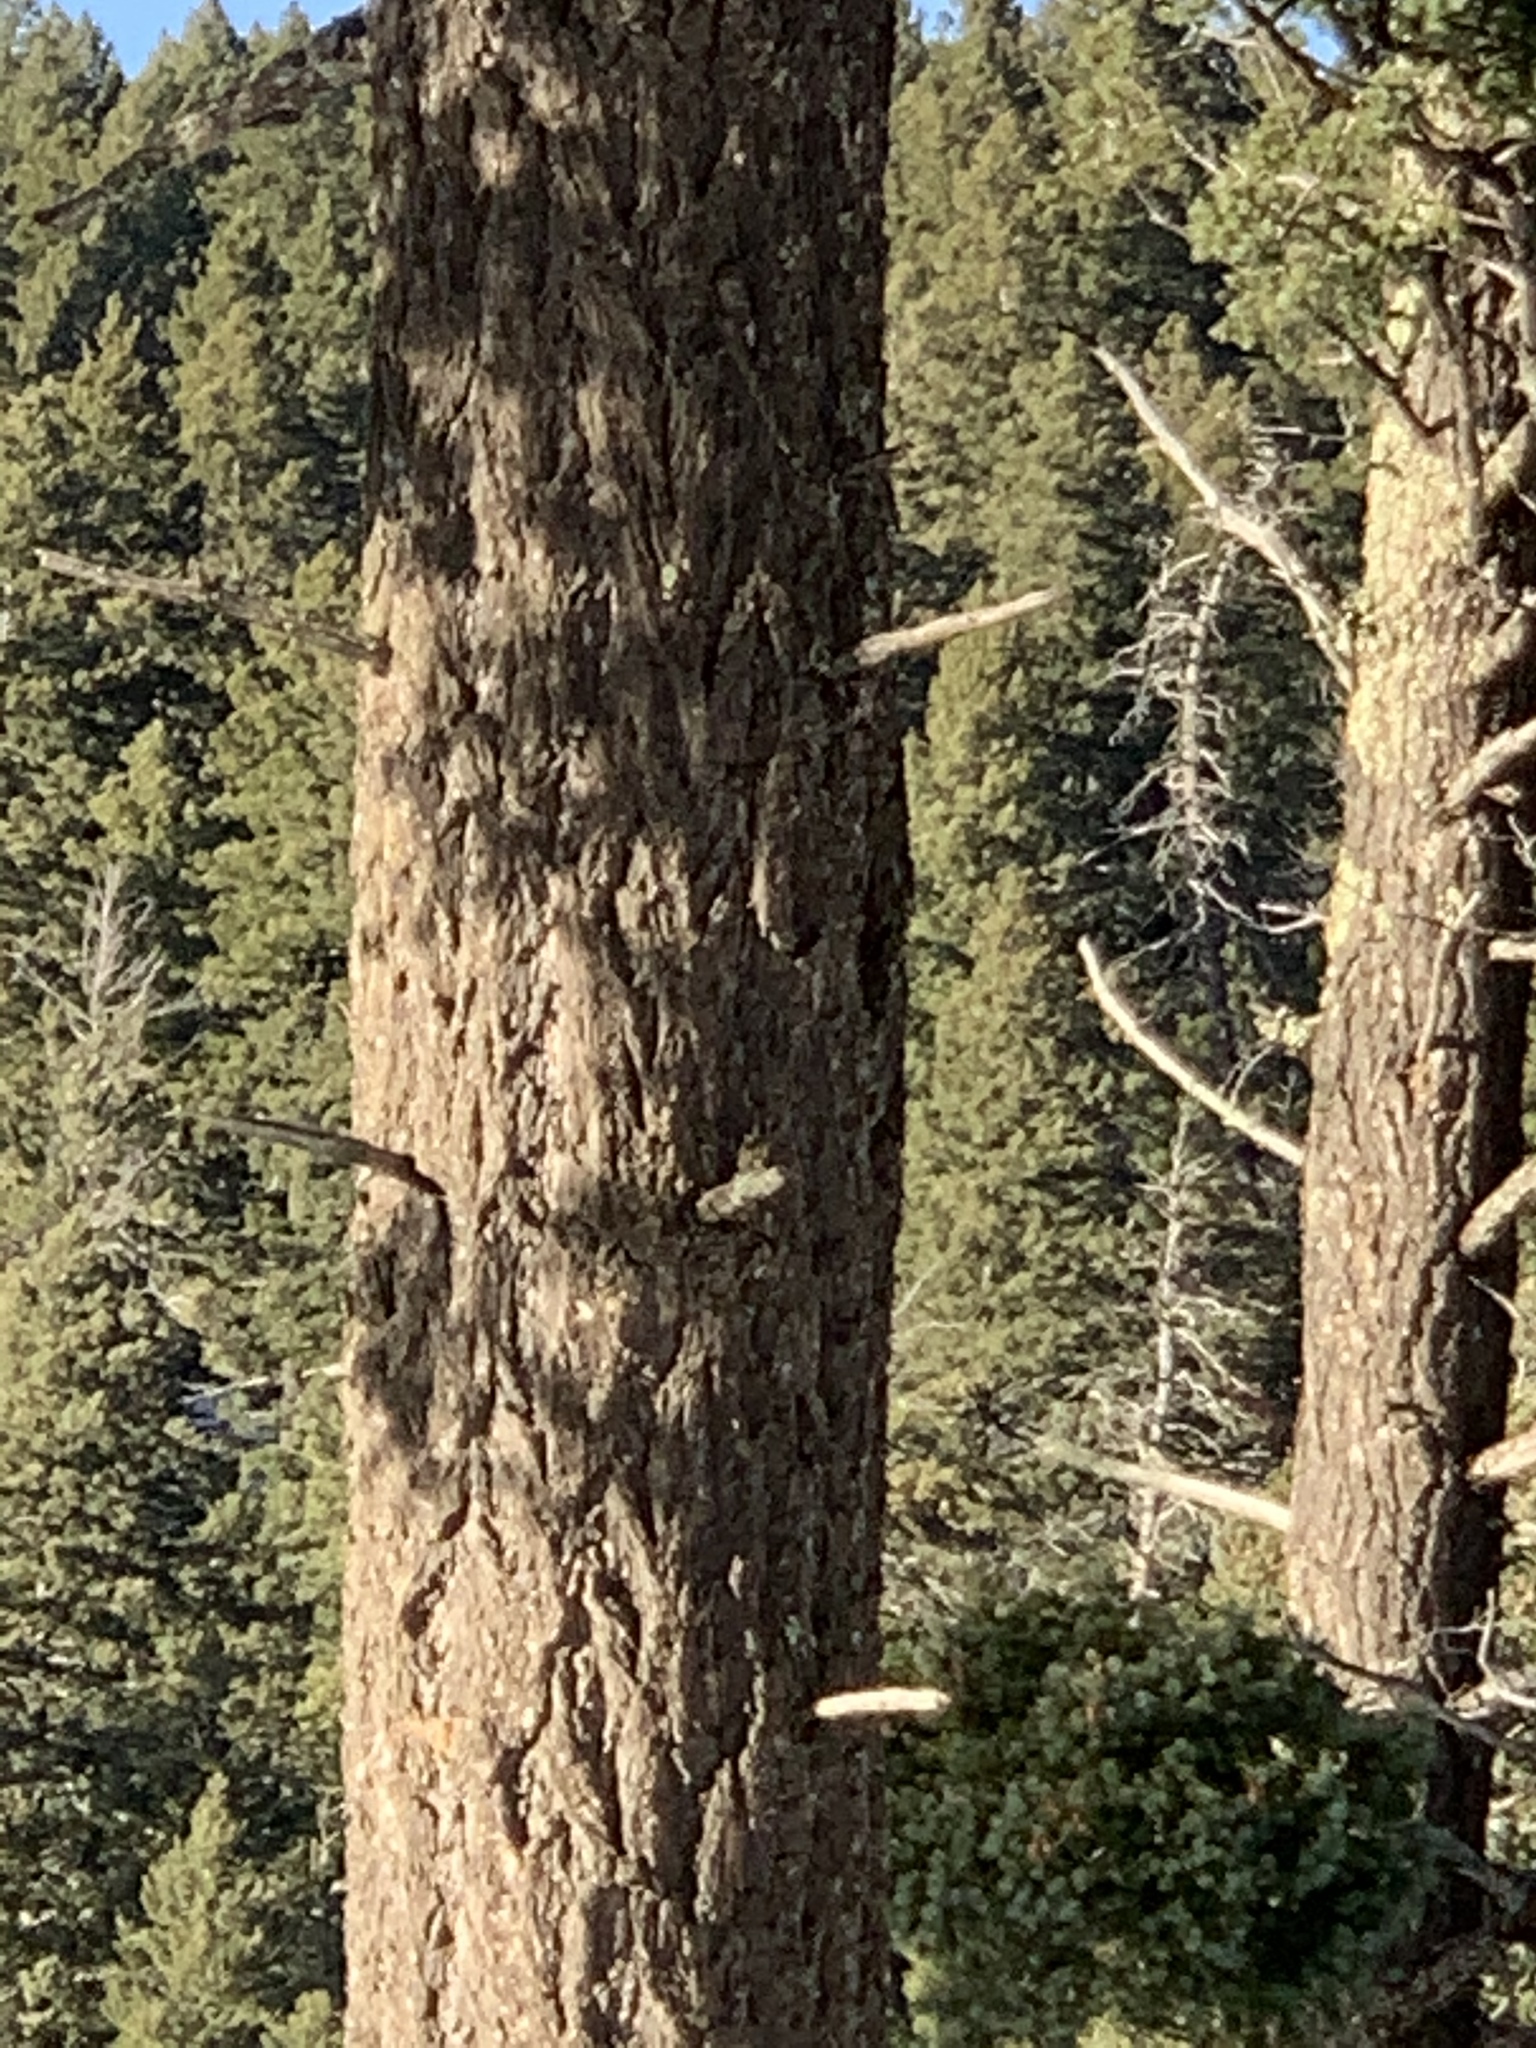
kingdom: Plantae
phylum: Tracheophyta
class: Pinopsida
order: Pinales
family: Pinaceae
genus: Pseudotsuga
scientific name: Pseudotsuga menziesii
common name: Douglas fir
